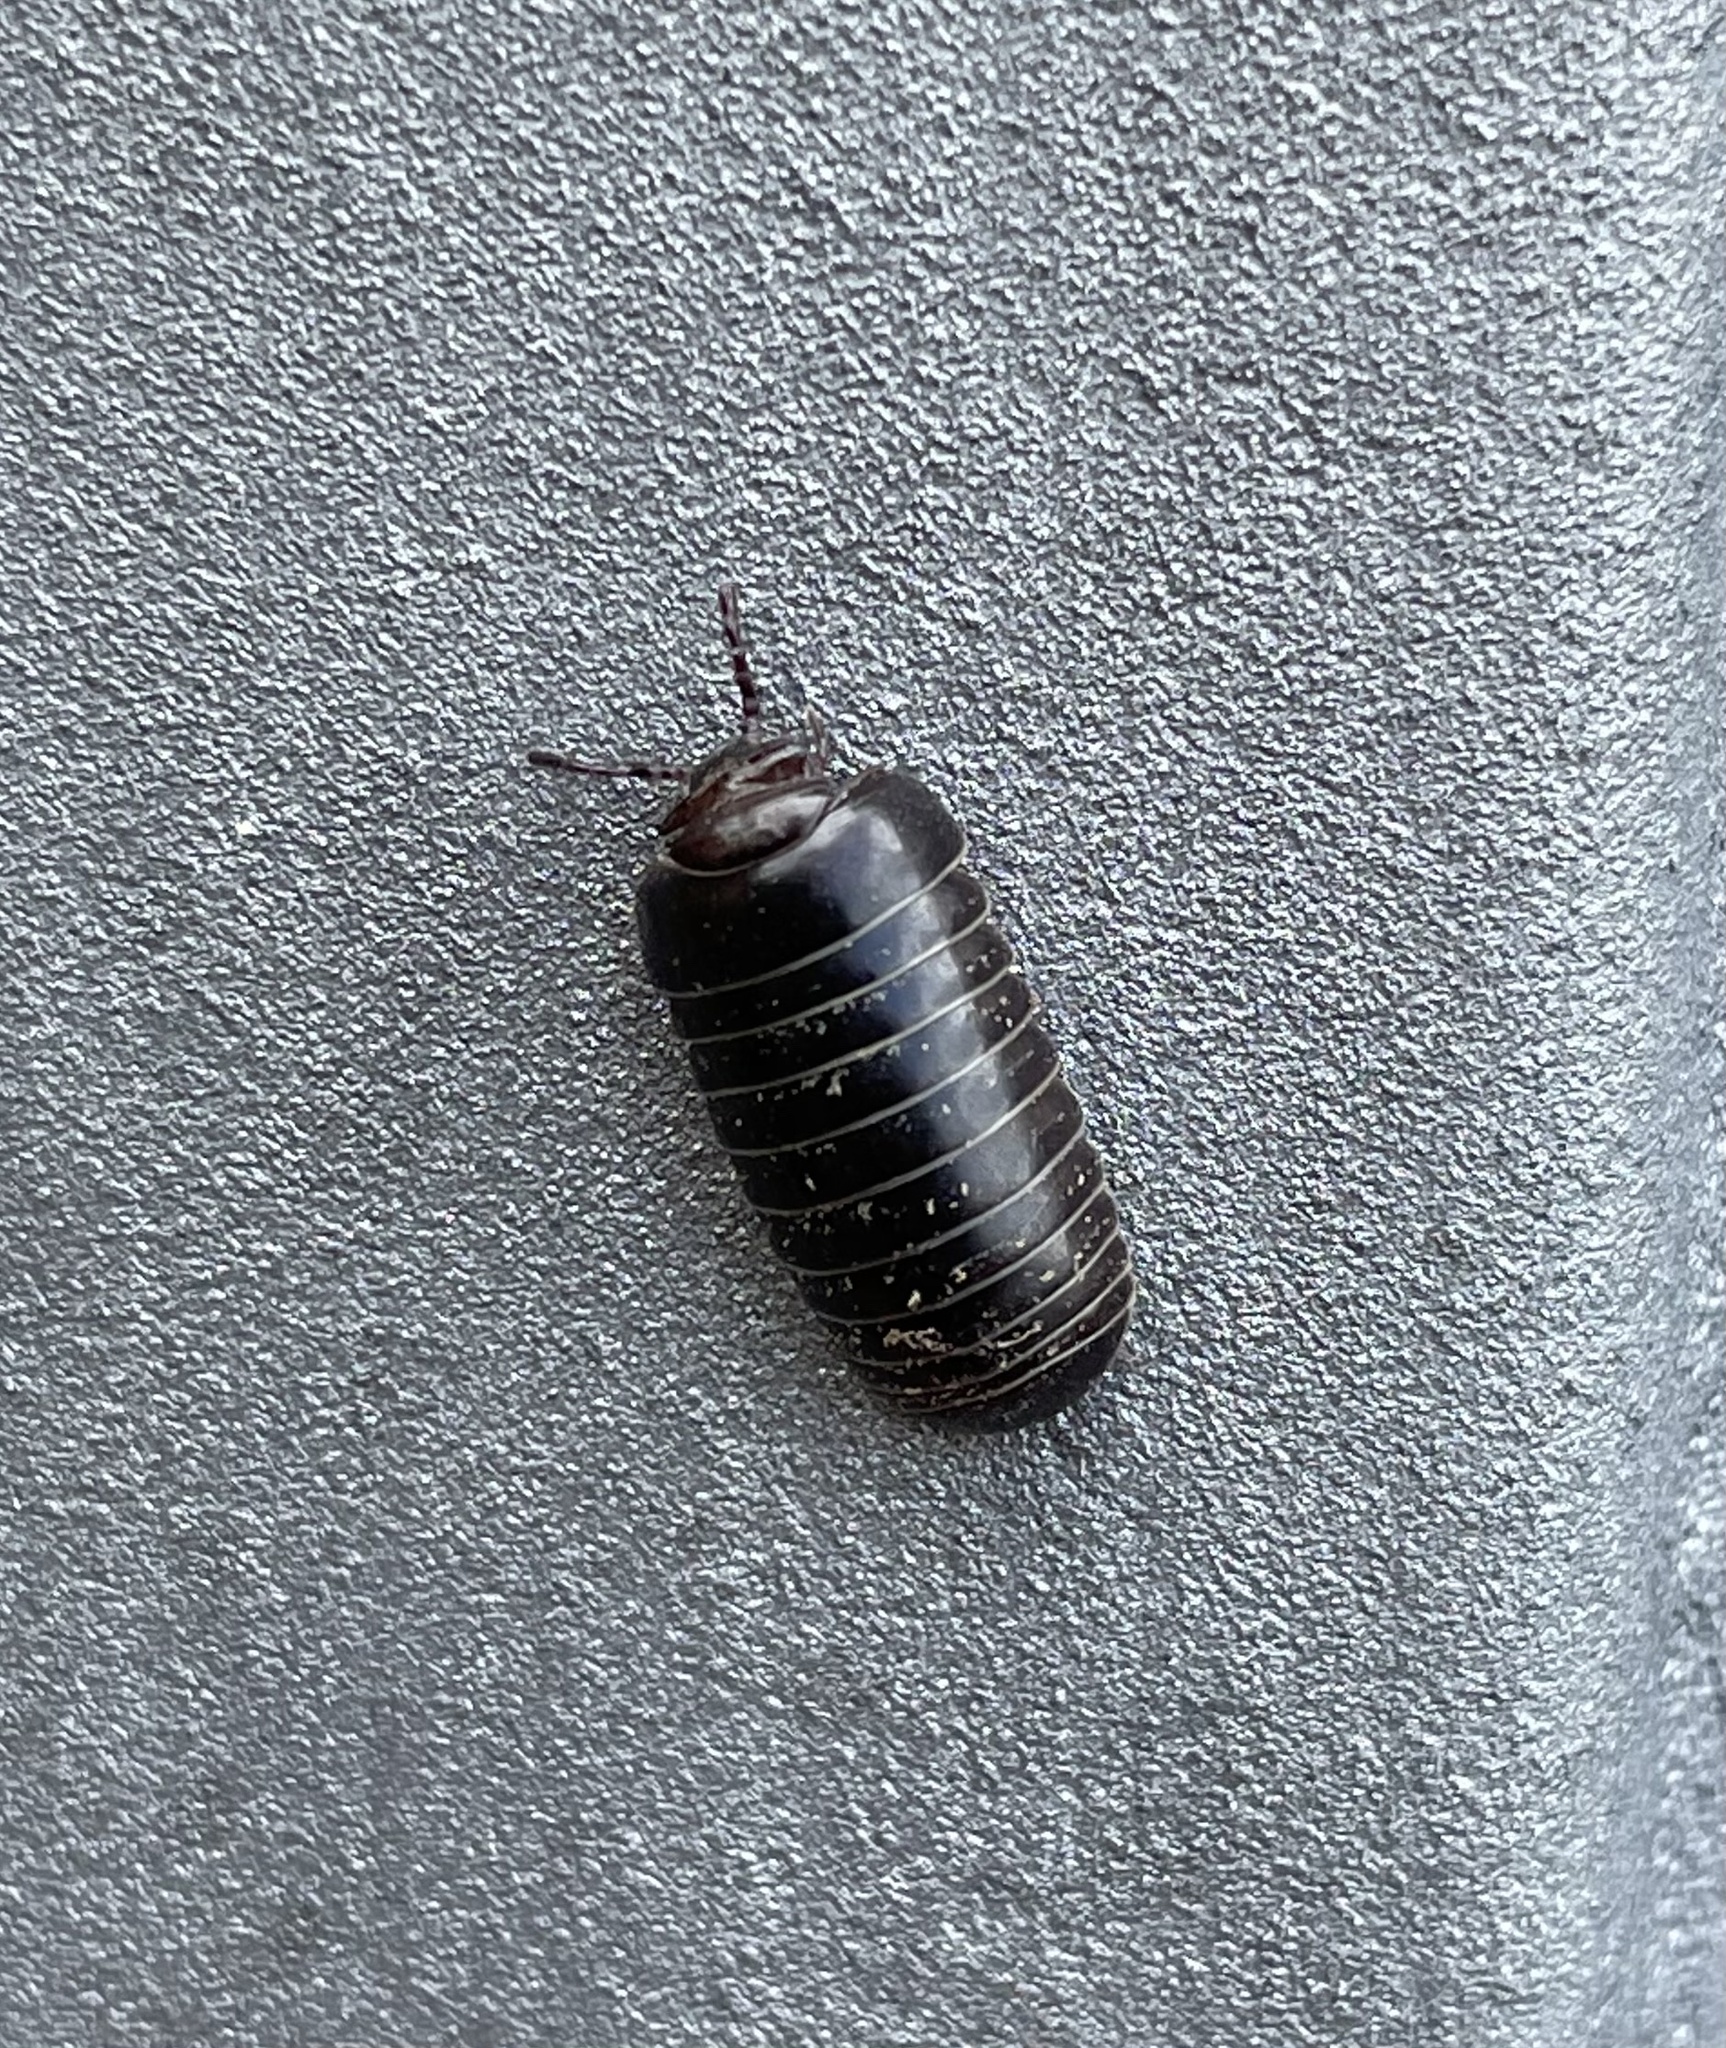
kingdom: Animalia
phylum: Arthropoda
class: Diplopoda
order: Glomerida
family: Glomeridae
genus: Glomeris
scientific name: Glomeris marginata
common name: Bordered pill millipede
